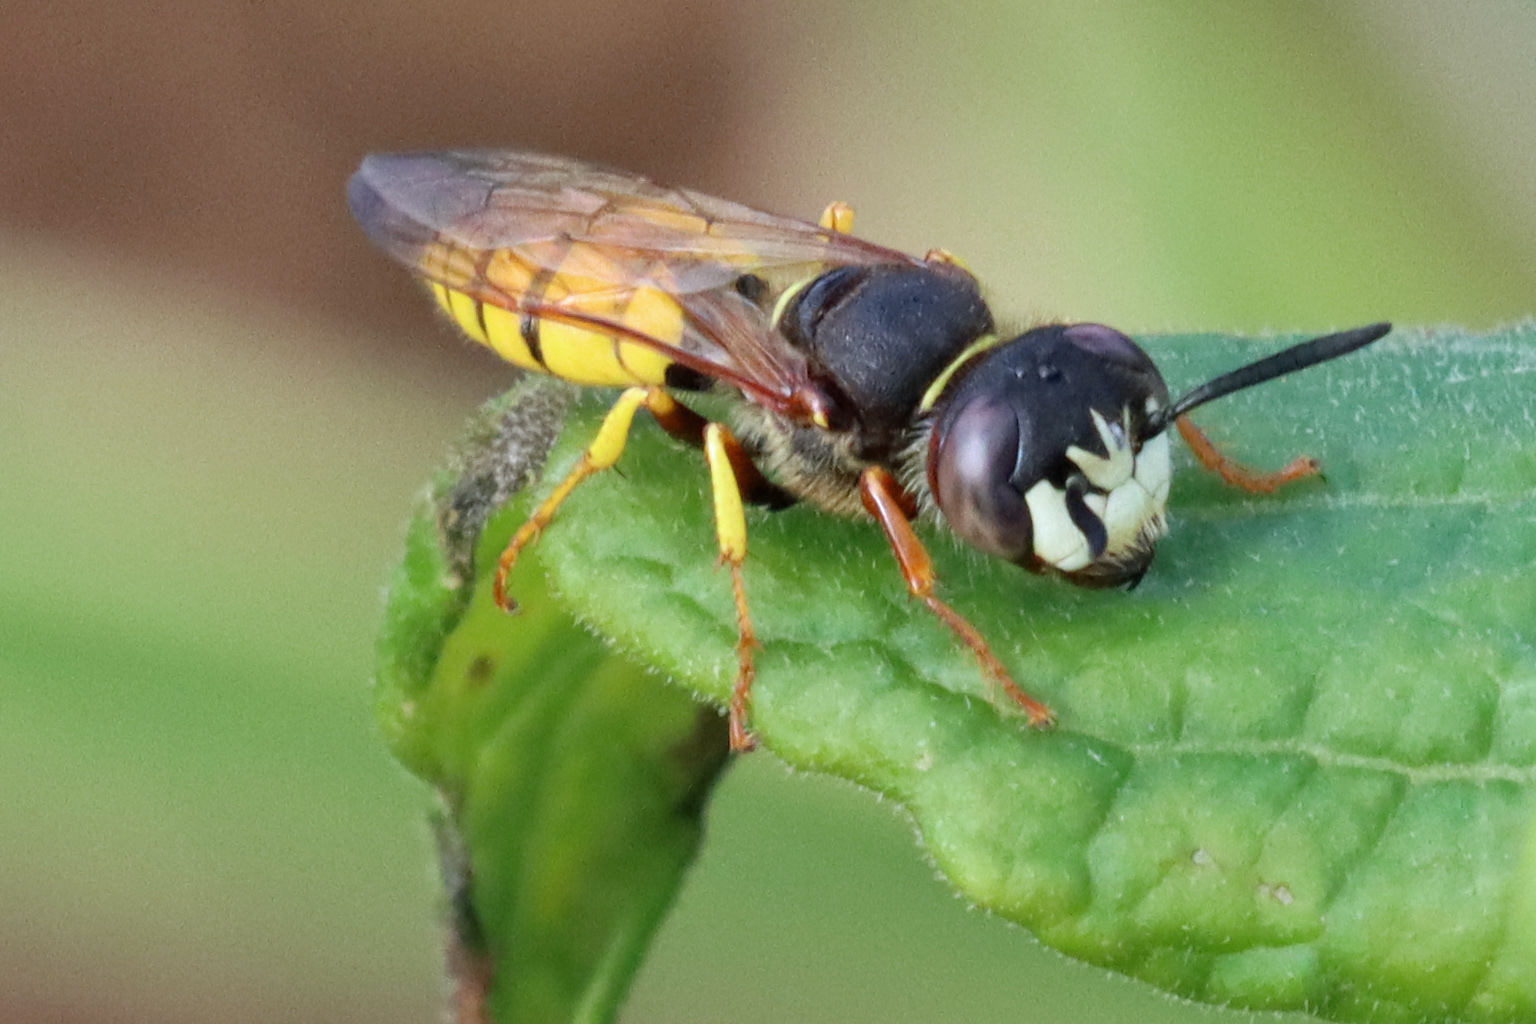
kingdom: Animalia
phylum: Arthropoda
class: Insecta
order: Hymenoptera
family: Crabronidae
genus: Philanthus
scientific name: Philanthus triangulum
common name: Bee wolf
